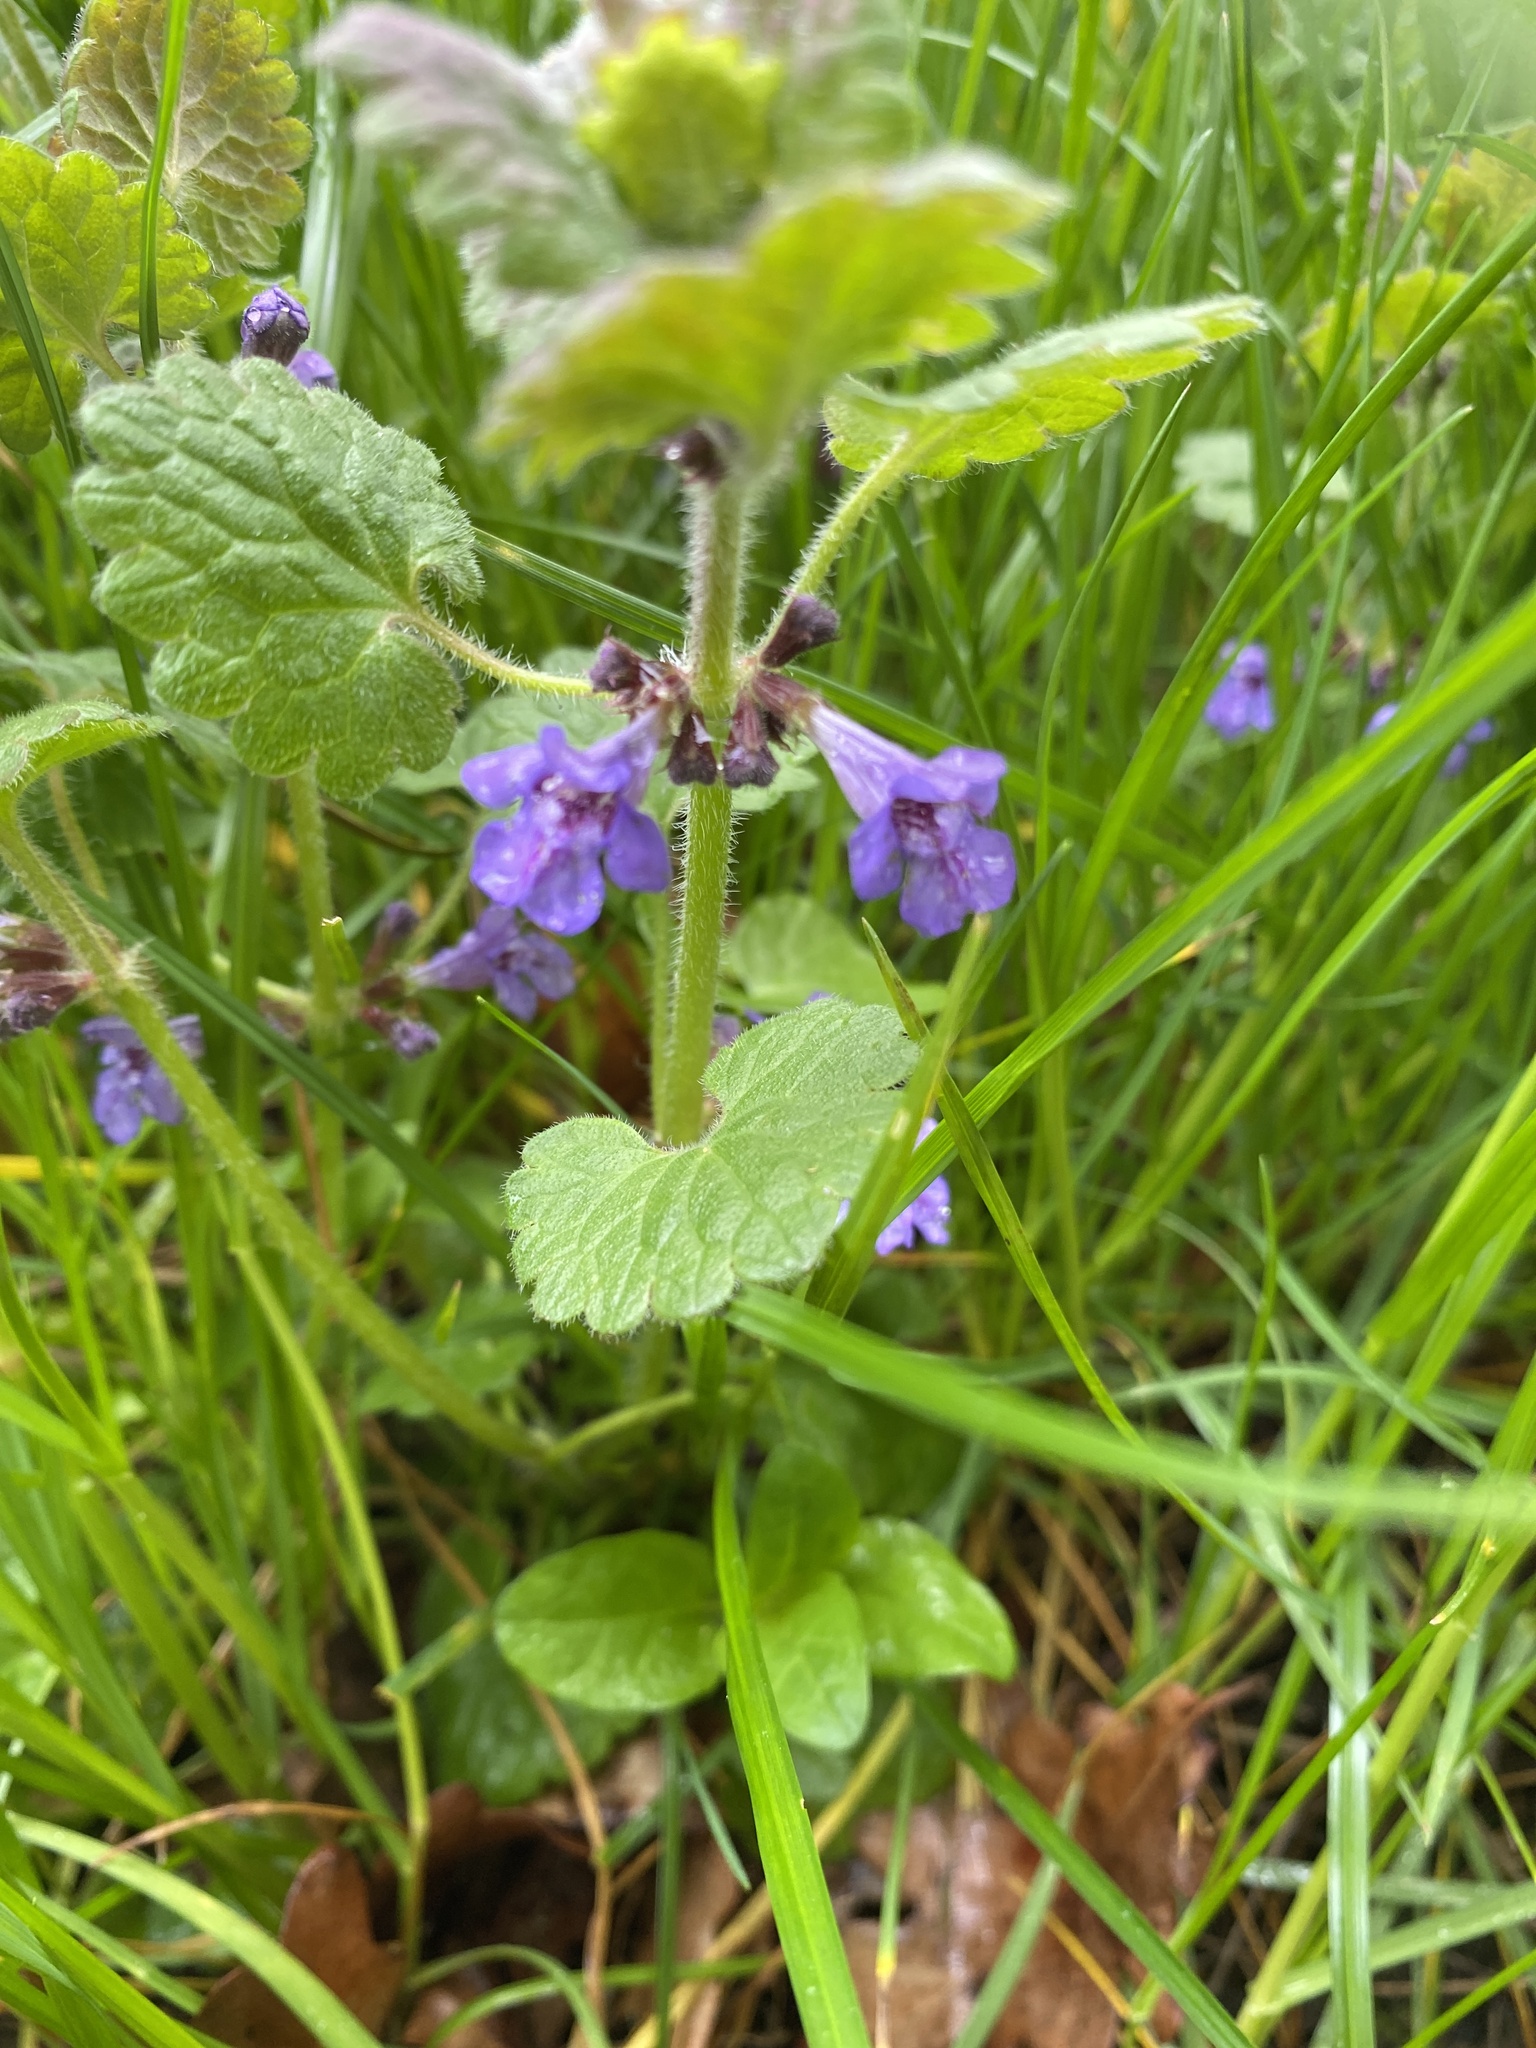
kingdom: Plantae
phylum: Tracheophyta
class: Magnoliopsida
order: Lamiales
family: Lamiaceae
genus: Glechoma
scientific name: Glechoma hederacea
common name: Ground ivy
